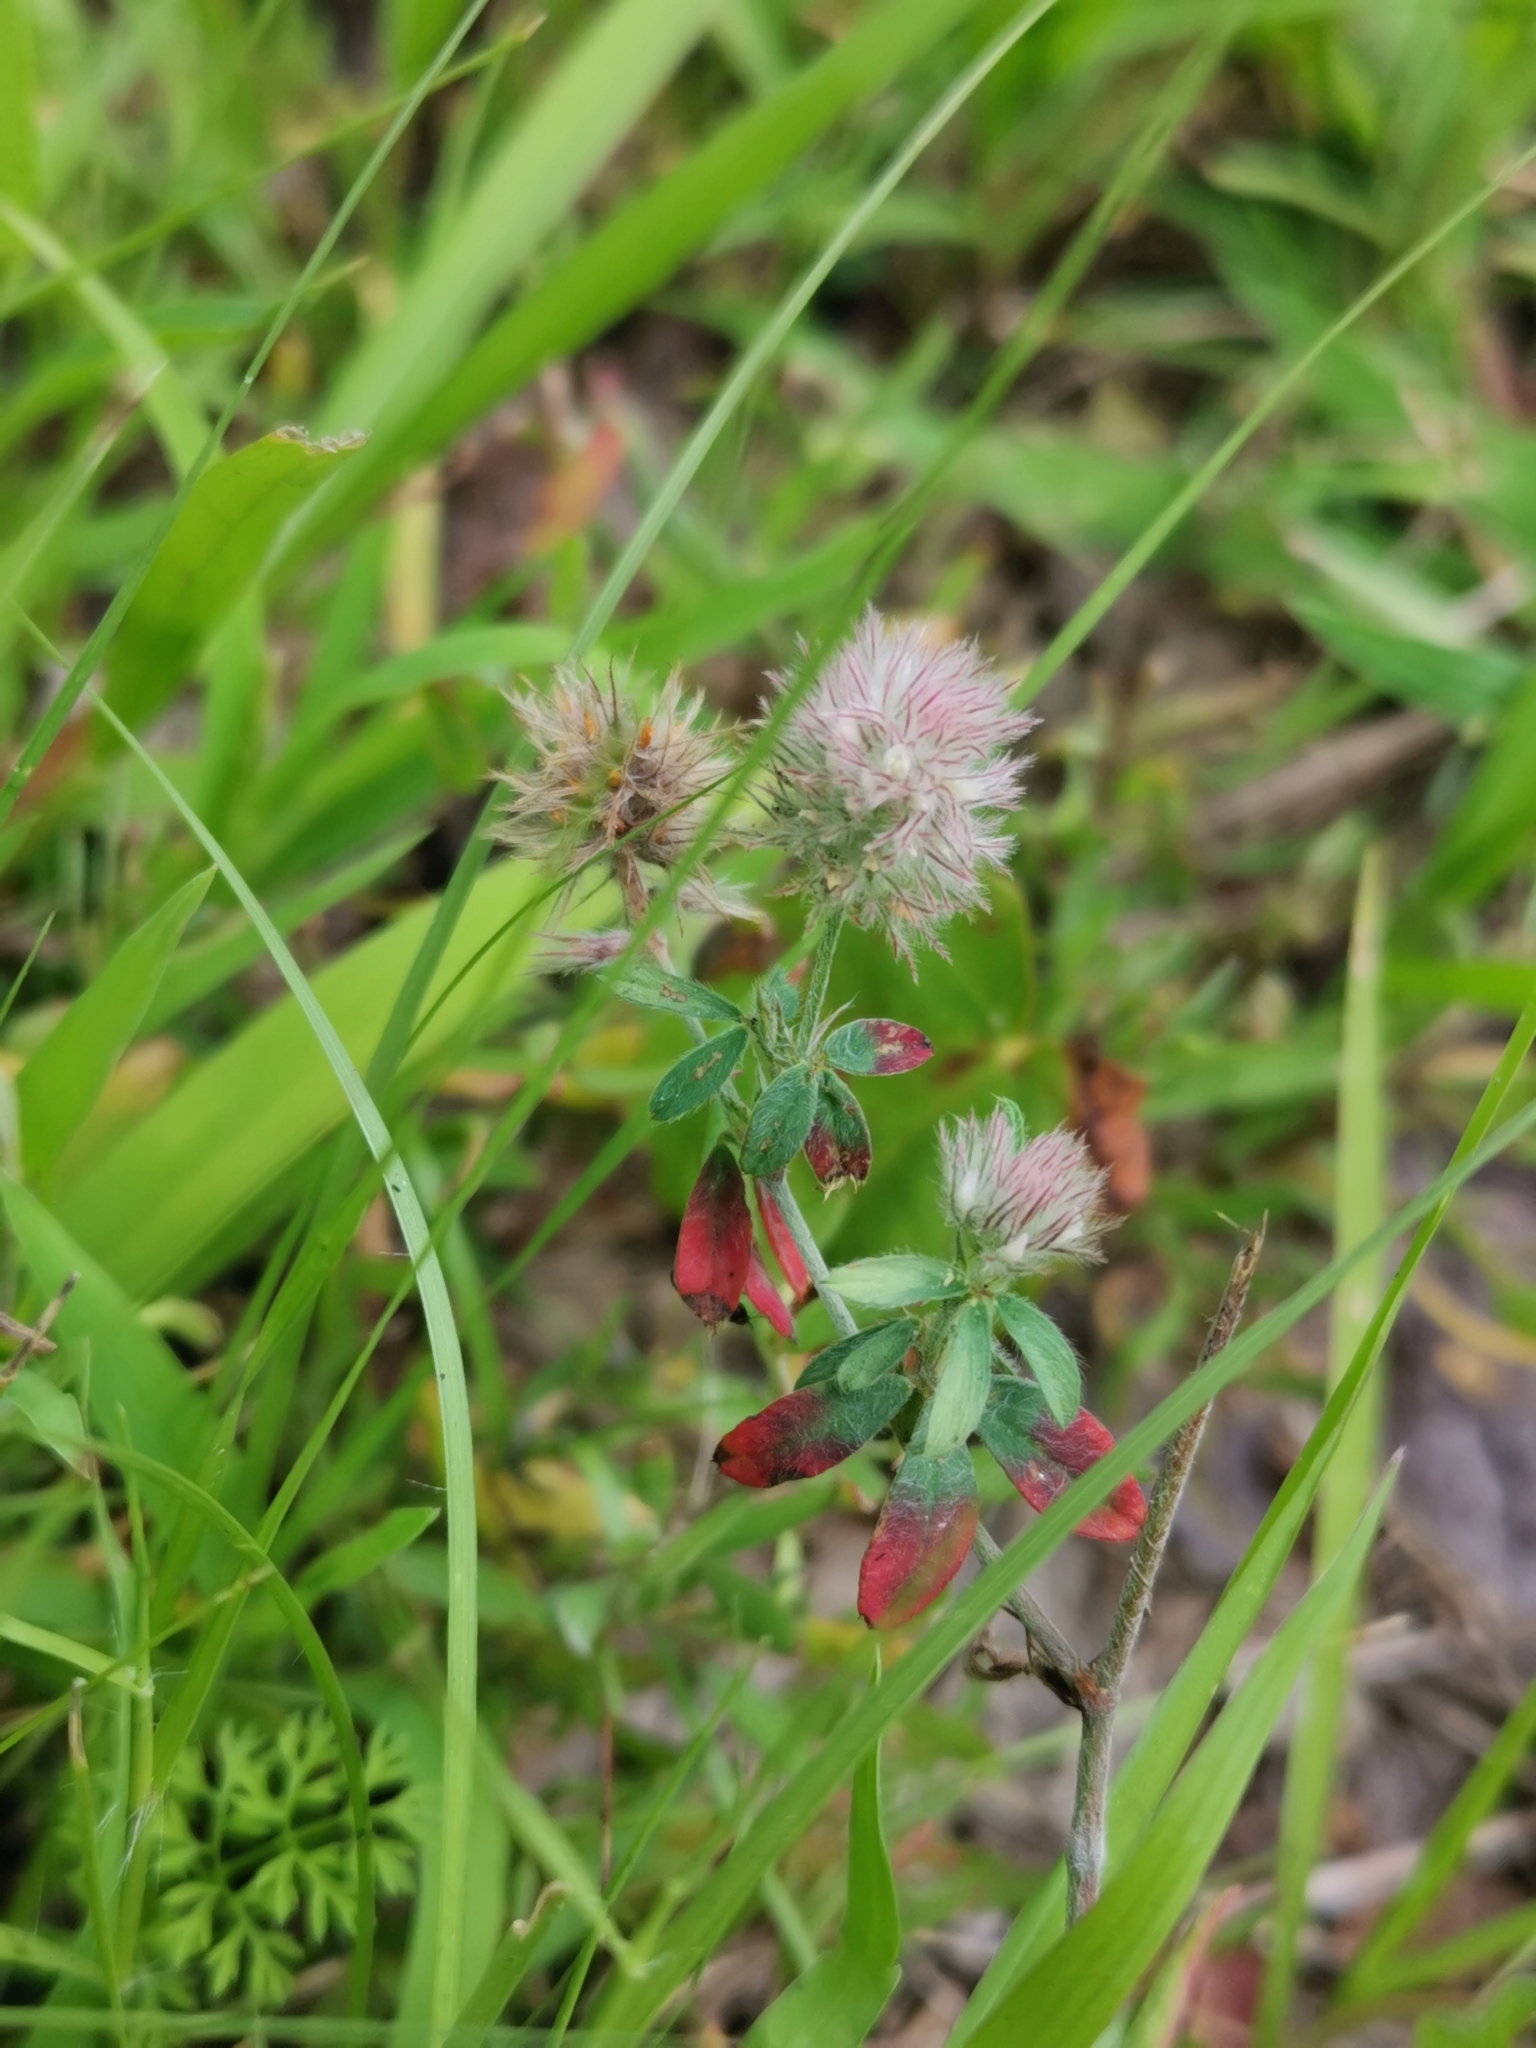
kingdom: Plantae
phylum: Tracheophyta
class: Magnoliopsida
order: Fabales
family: Fabaceae
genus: Trifolium
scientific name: Trifolium arvense
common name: Hare's-foot clover
